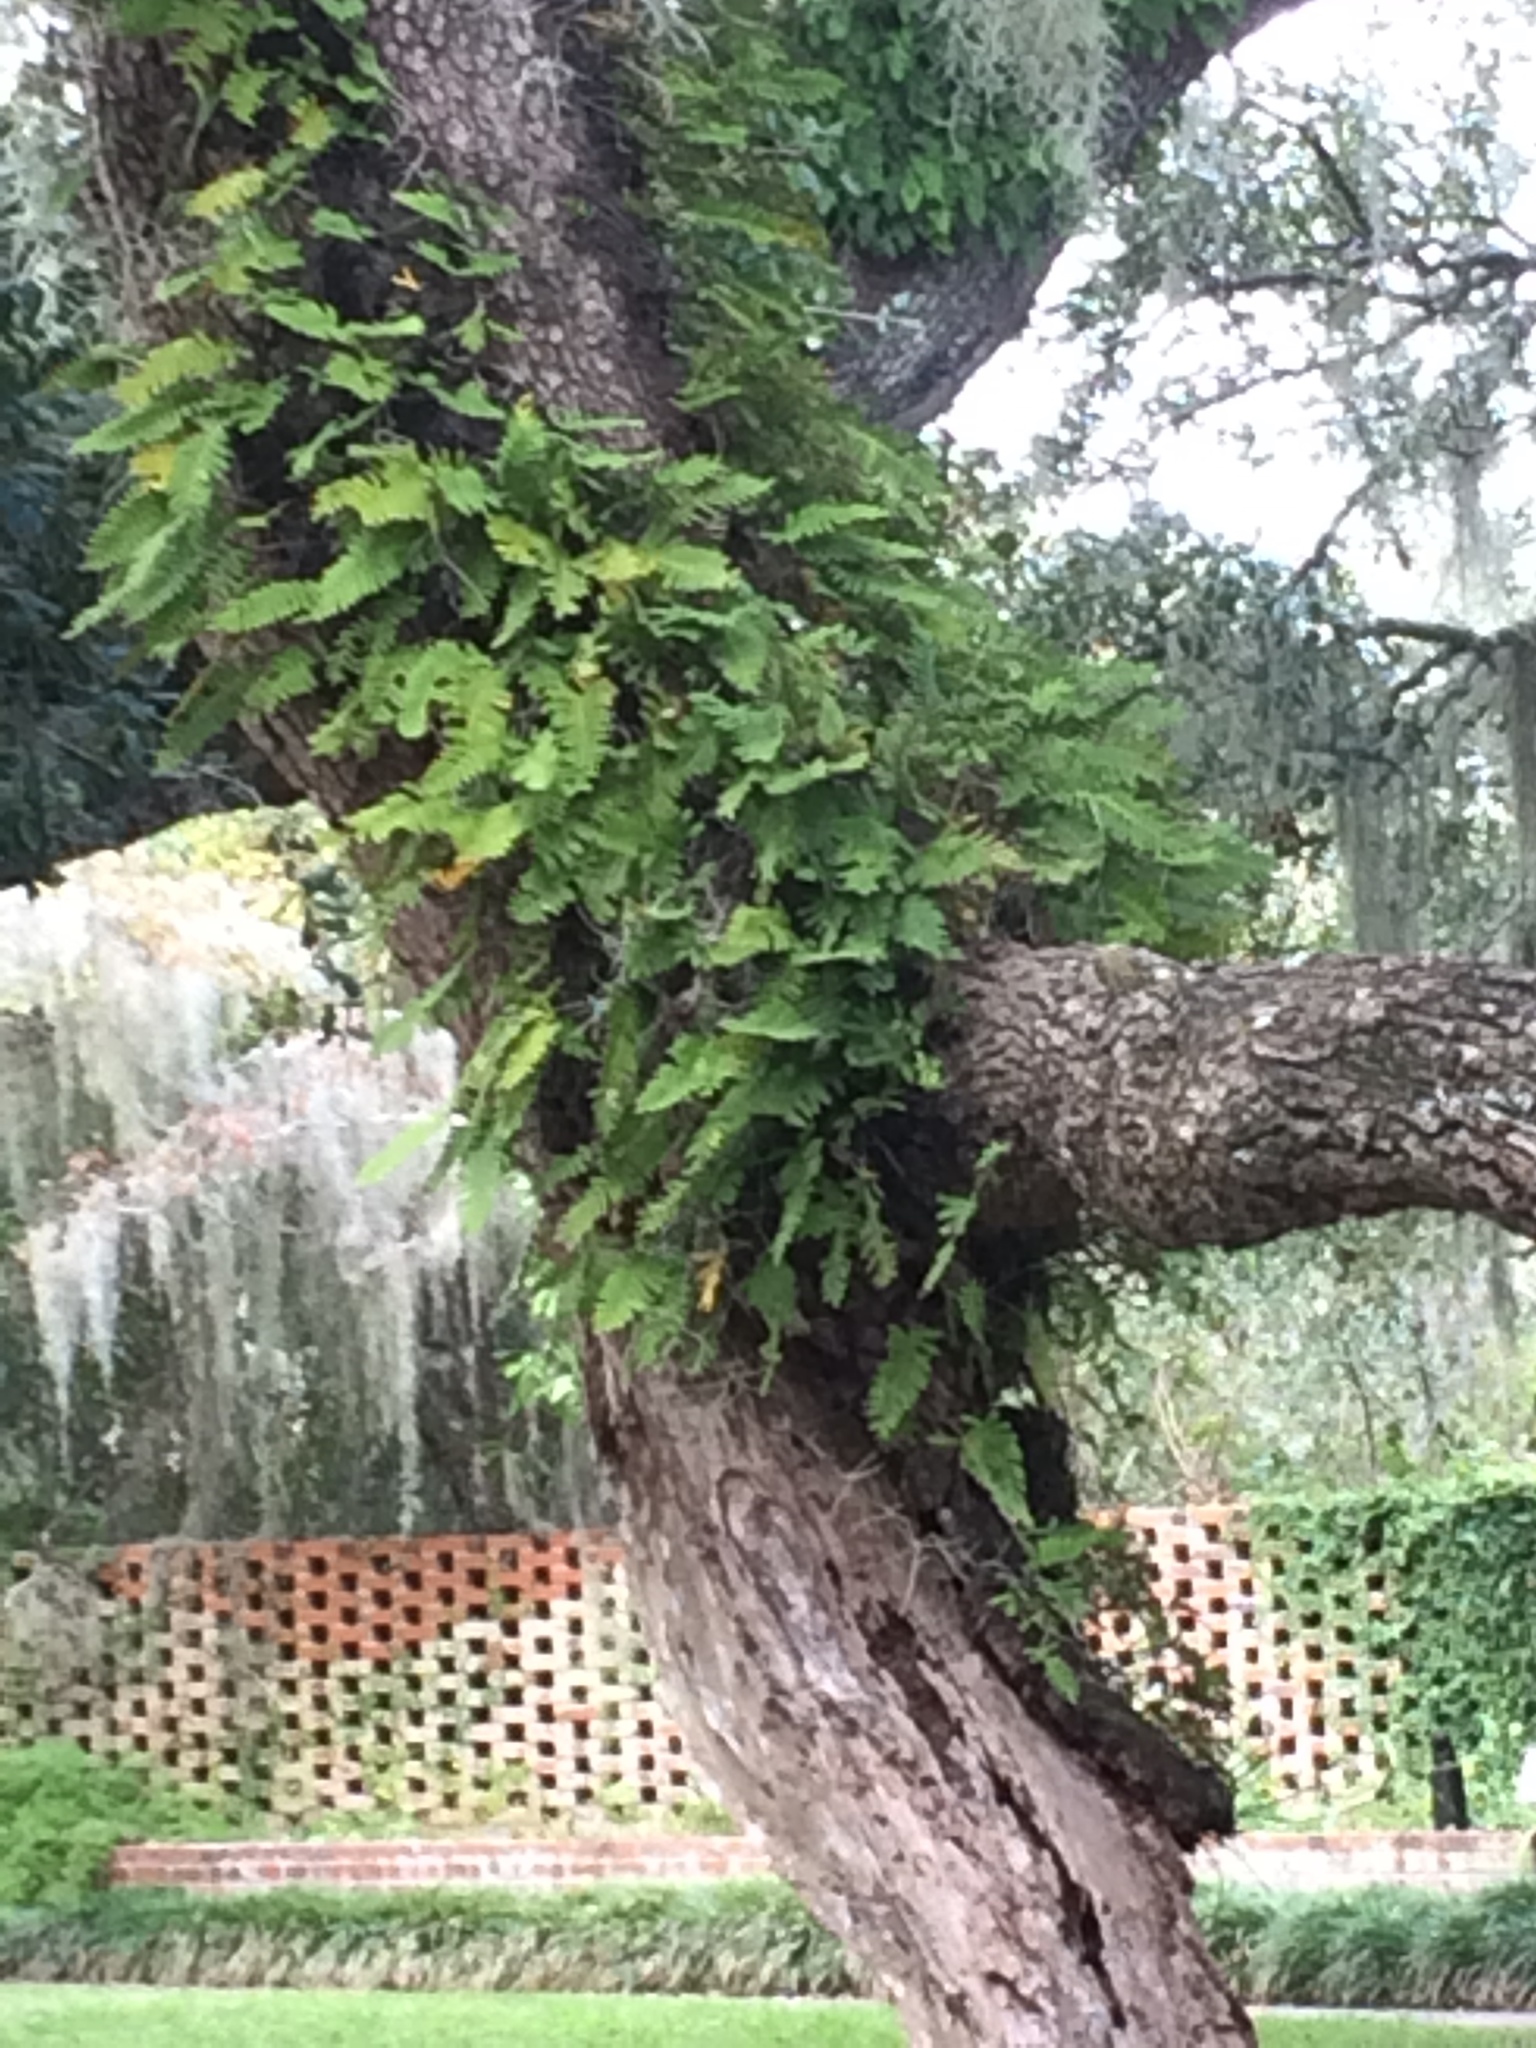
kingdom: Plantae
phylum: Tracheophyta
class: Polypodiopsida
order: Polypodiales
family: Polypodiaceae
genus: Pleopeltis
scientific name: Pleopeltis michauxiana
